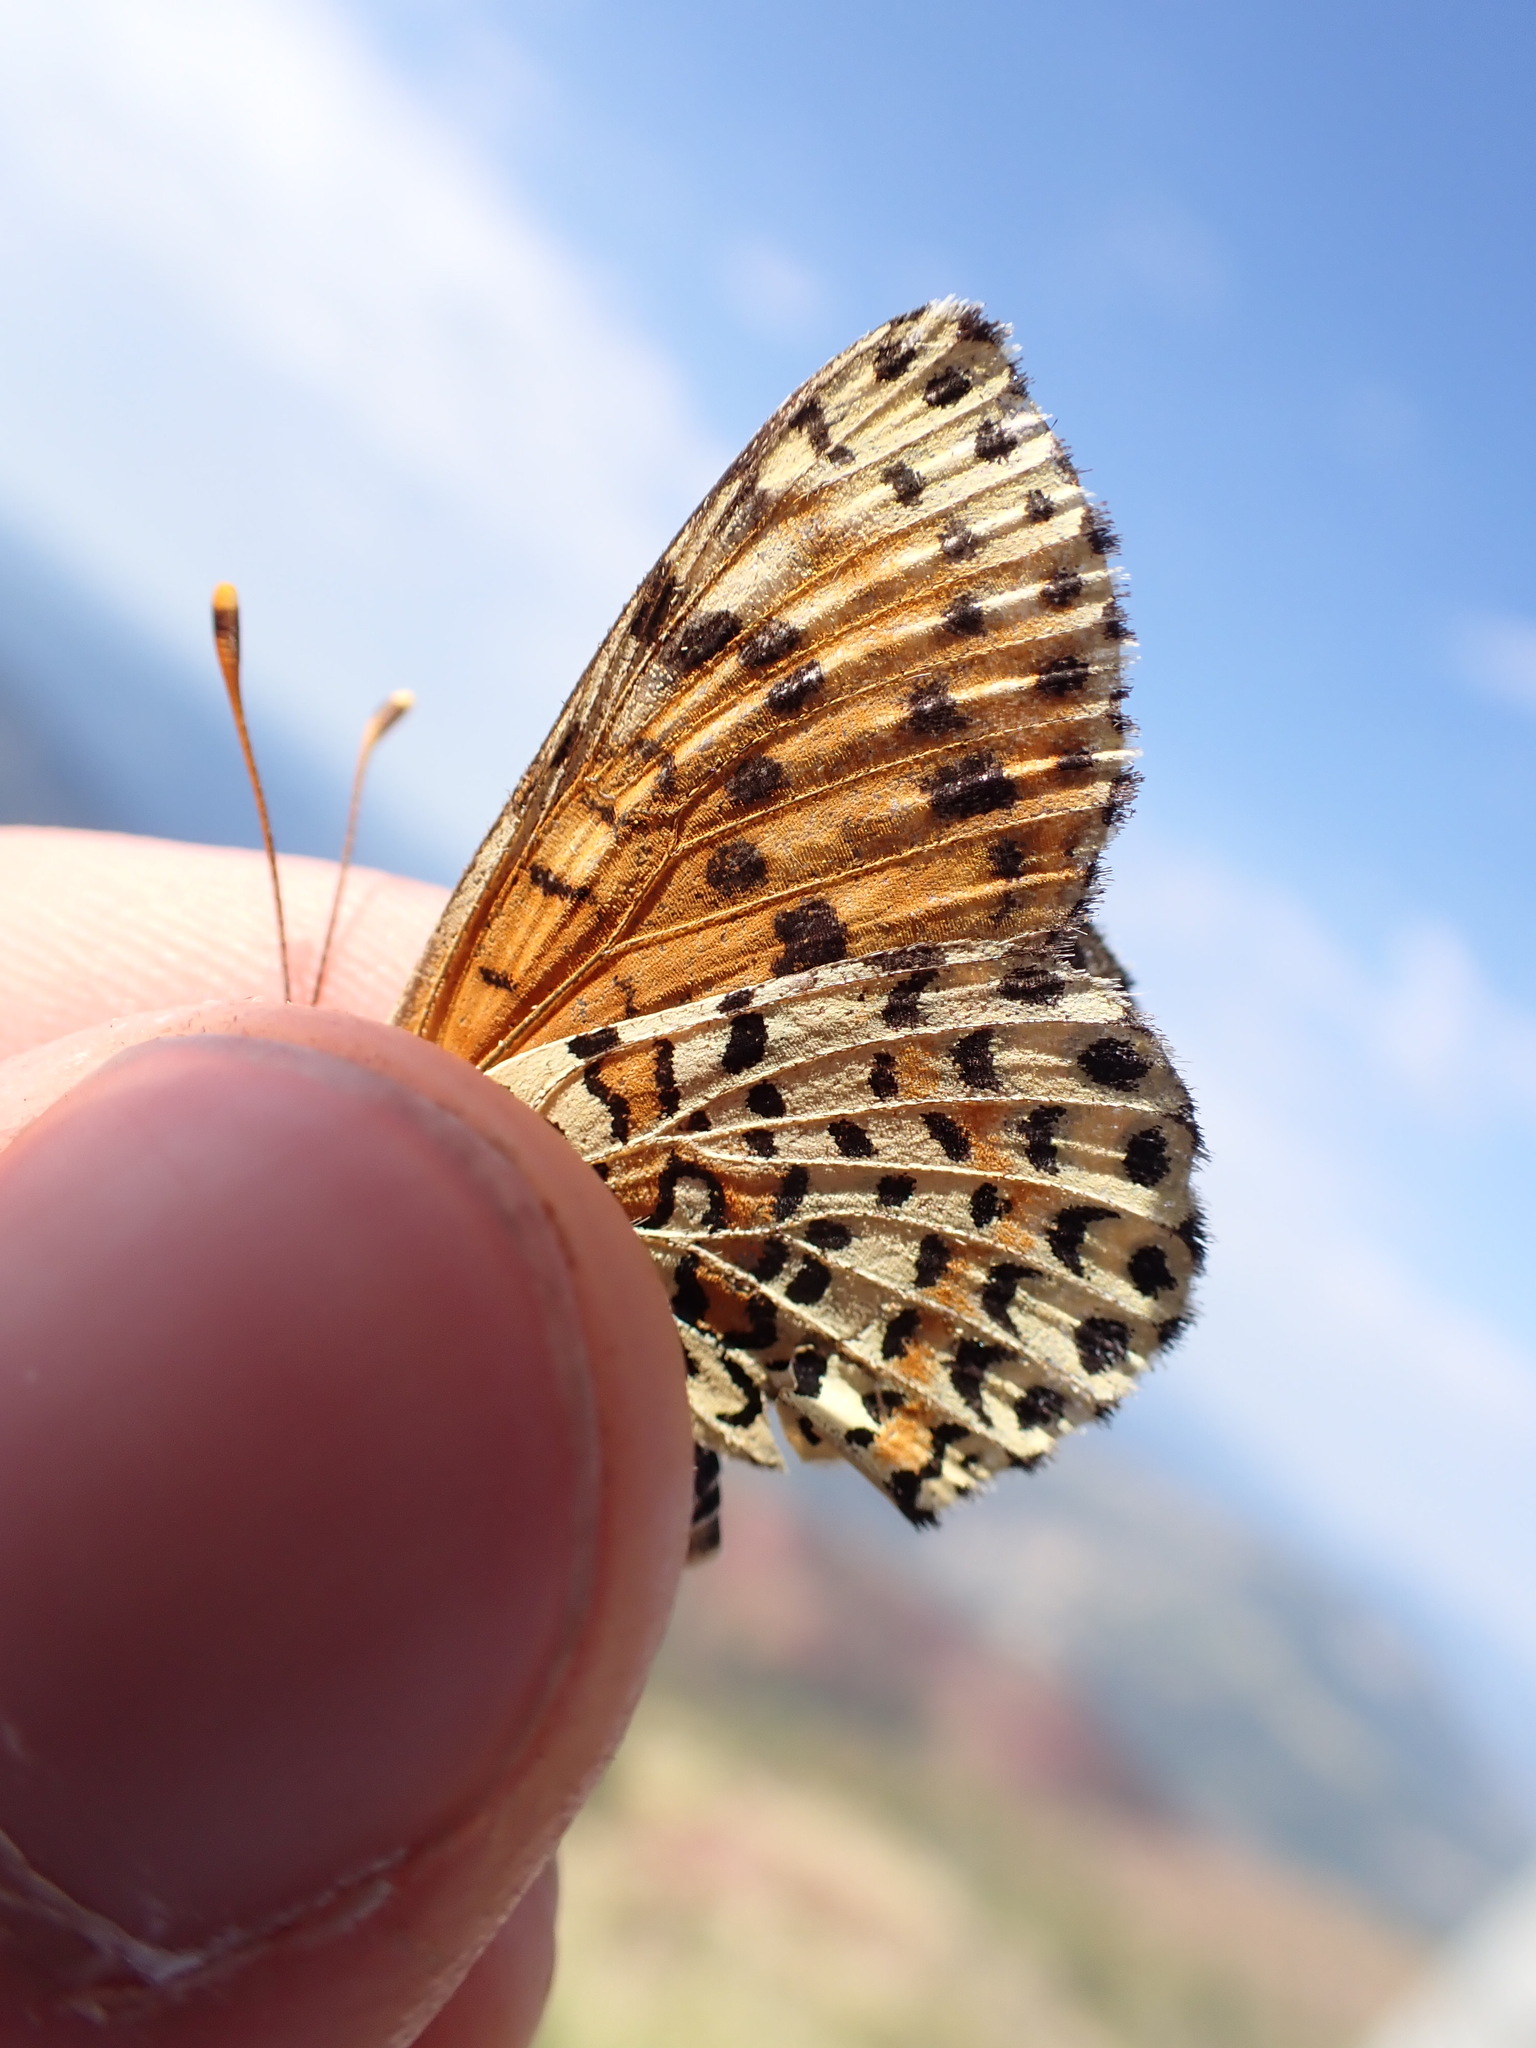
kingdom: Animalia
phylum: Arthropoda
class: Insecta
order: Lepidoptera
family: Nymphalidae
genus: Melitaea
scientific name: Melitaea didyma
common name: Spotted fritillary
